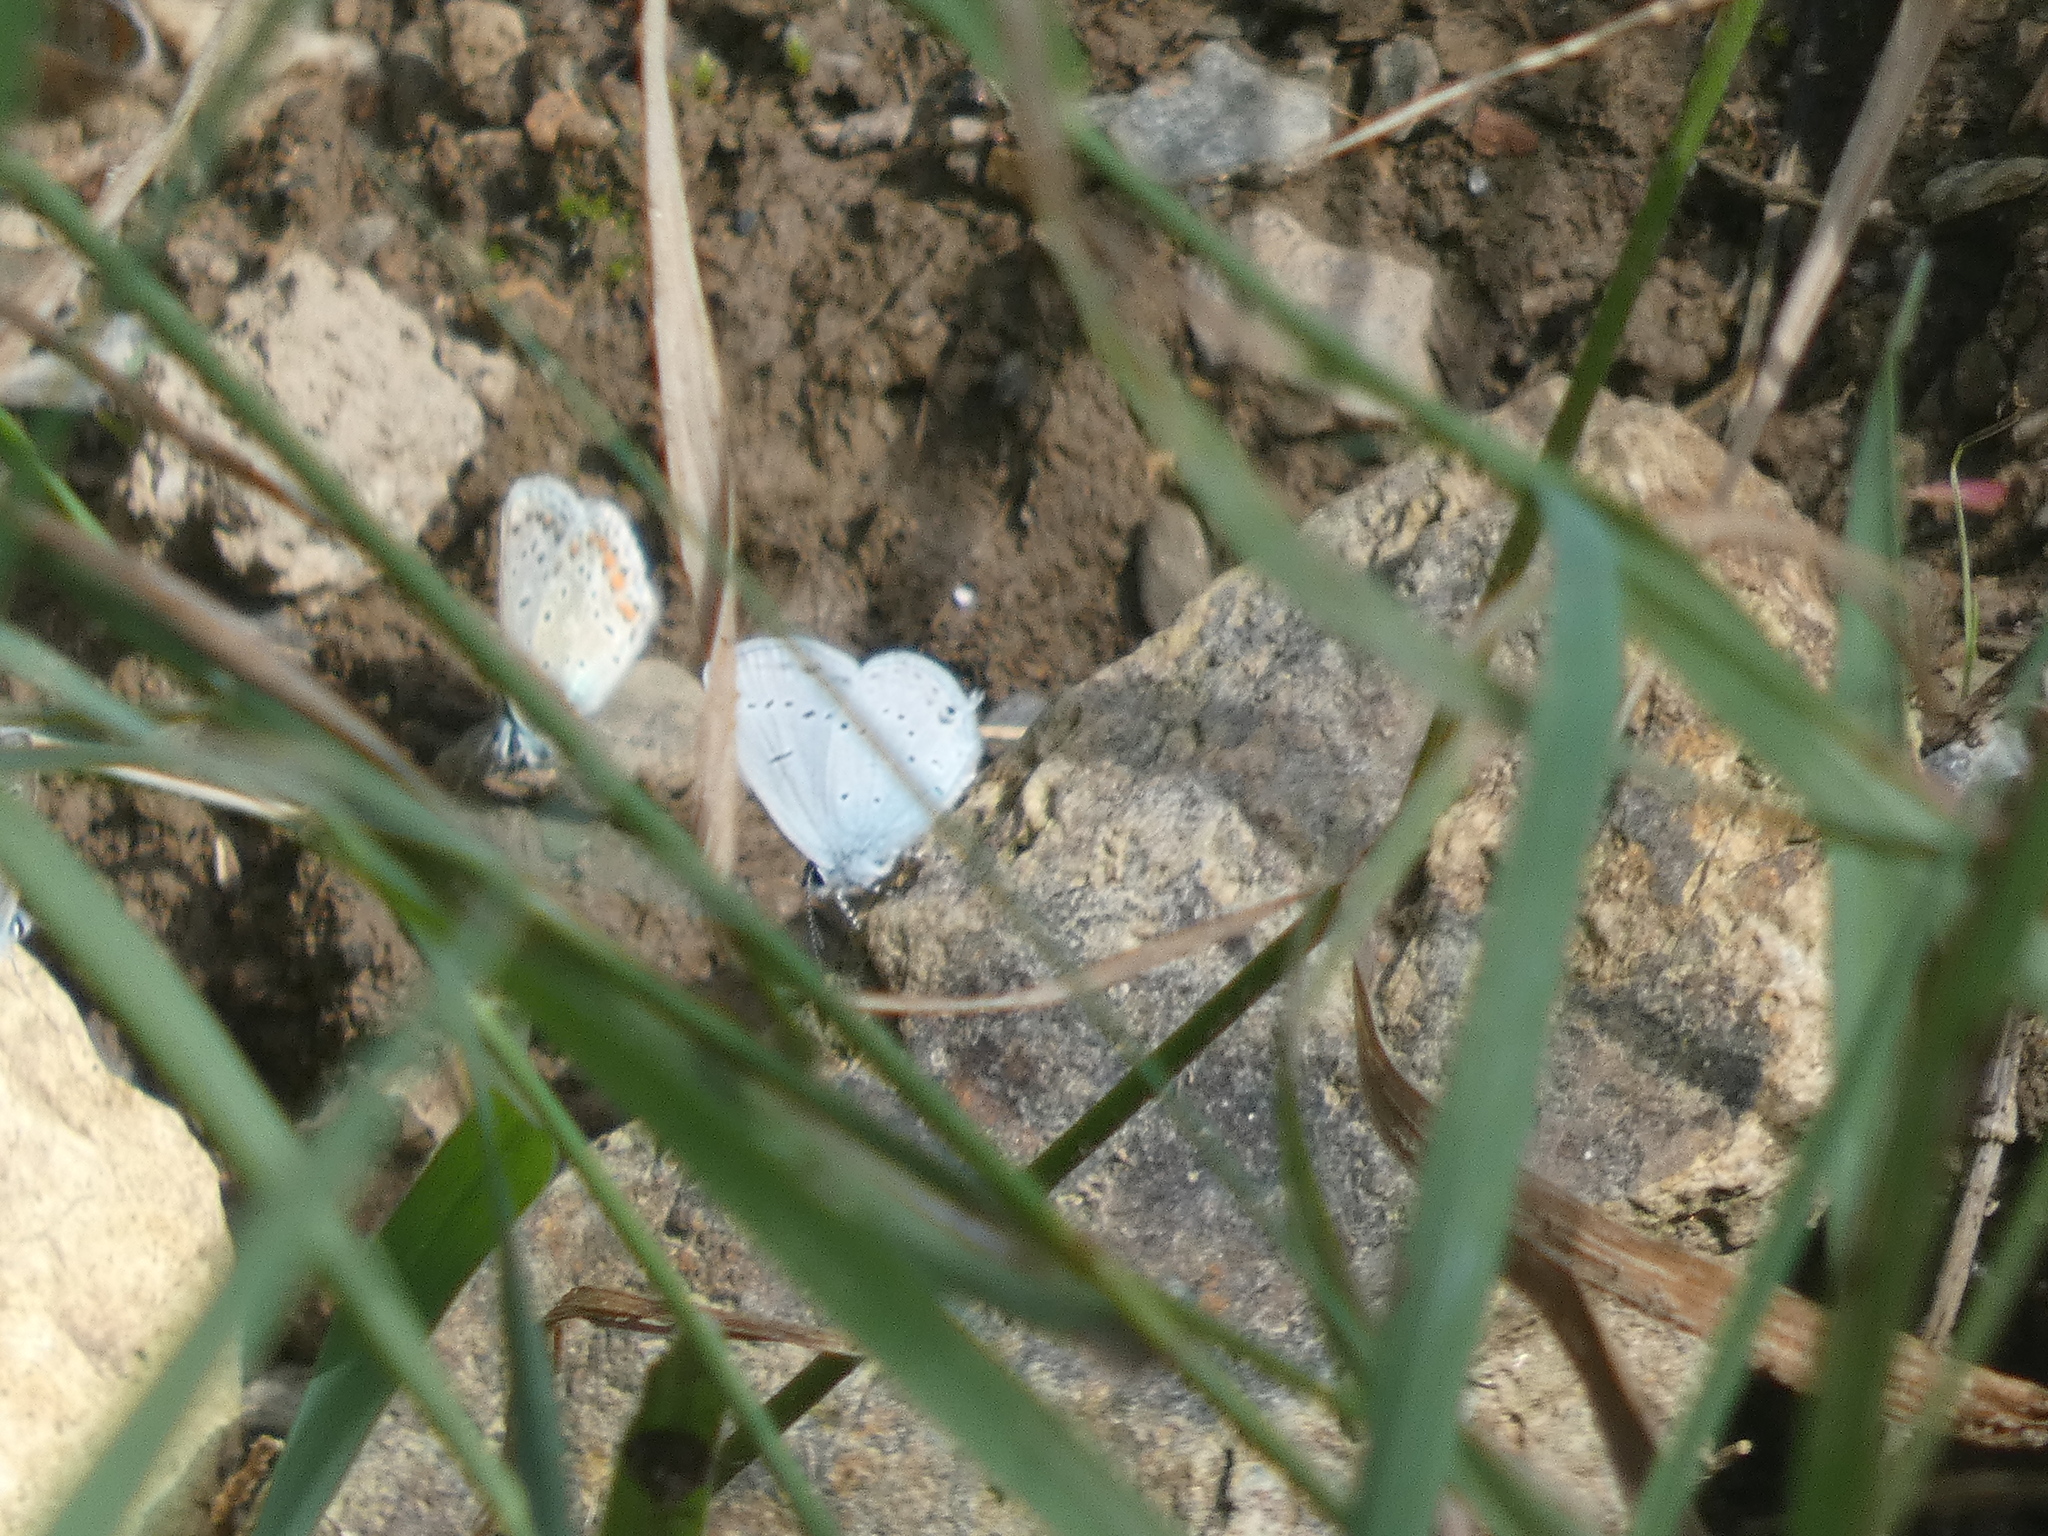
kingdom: Animalia
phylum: Arthropoda
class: Insecta
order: Lepidoptera
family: Lycaenidae
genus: Elkalyce
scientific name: Elkalyce alcetas
